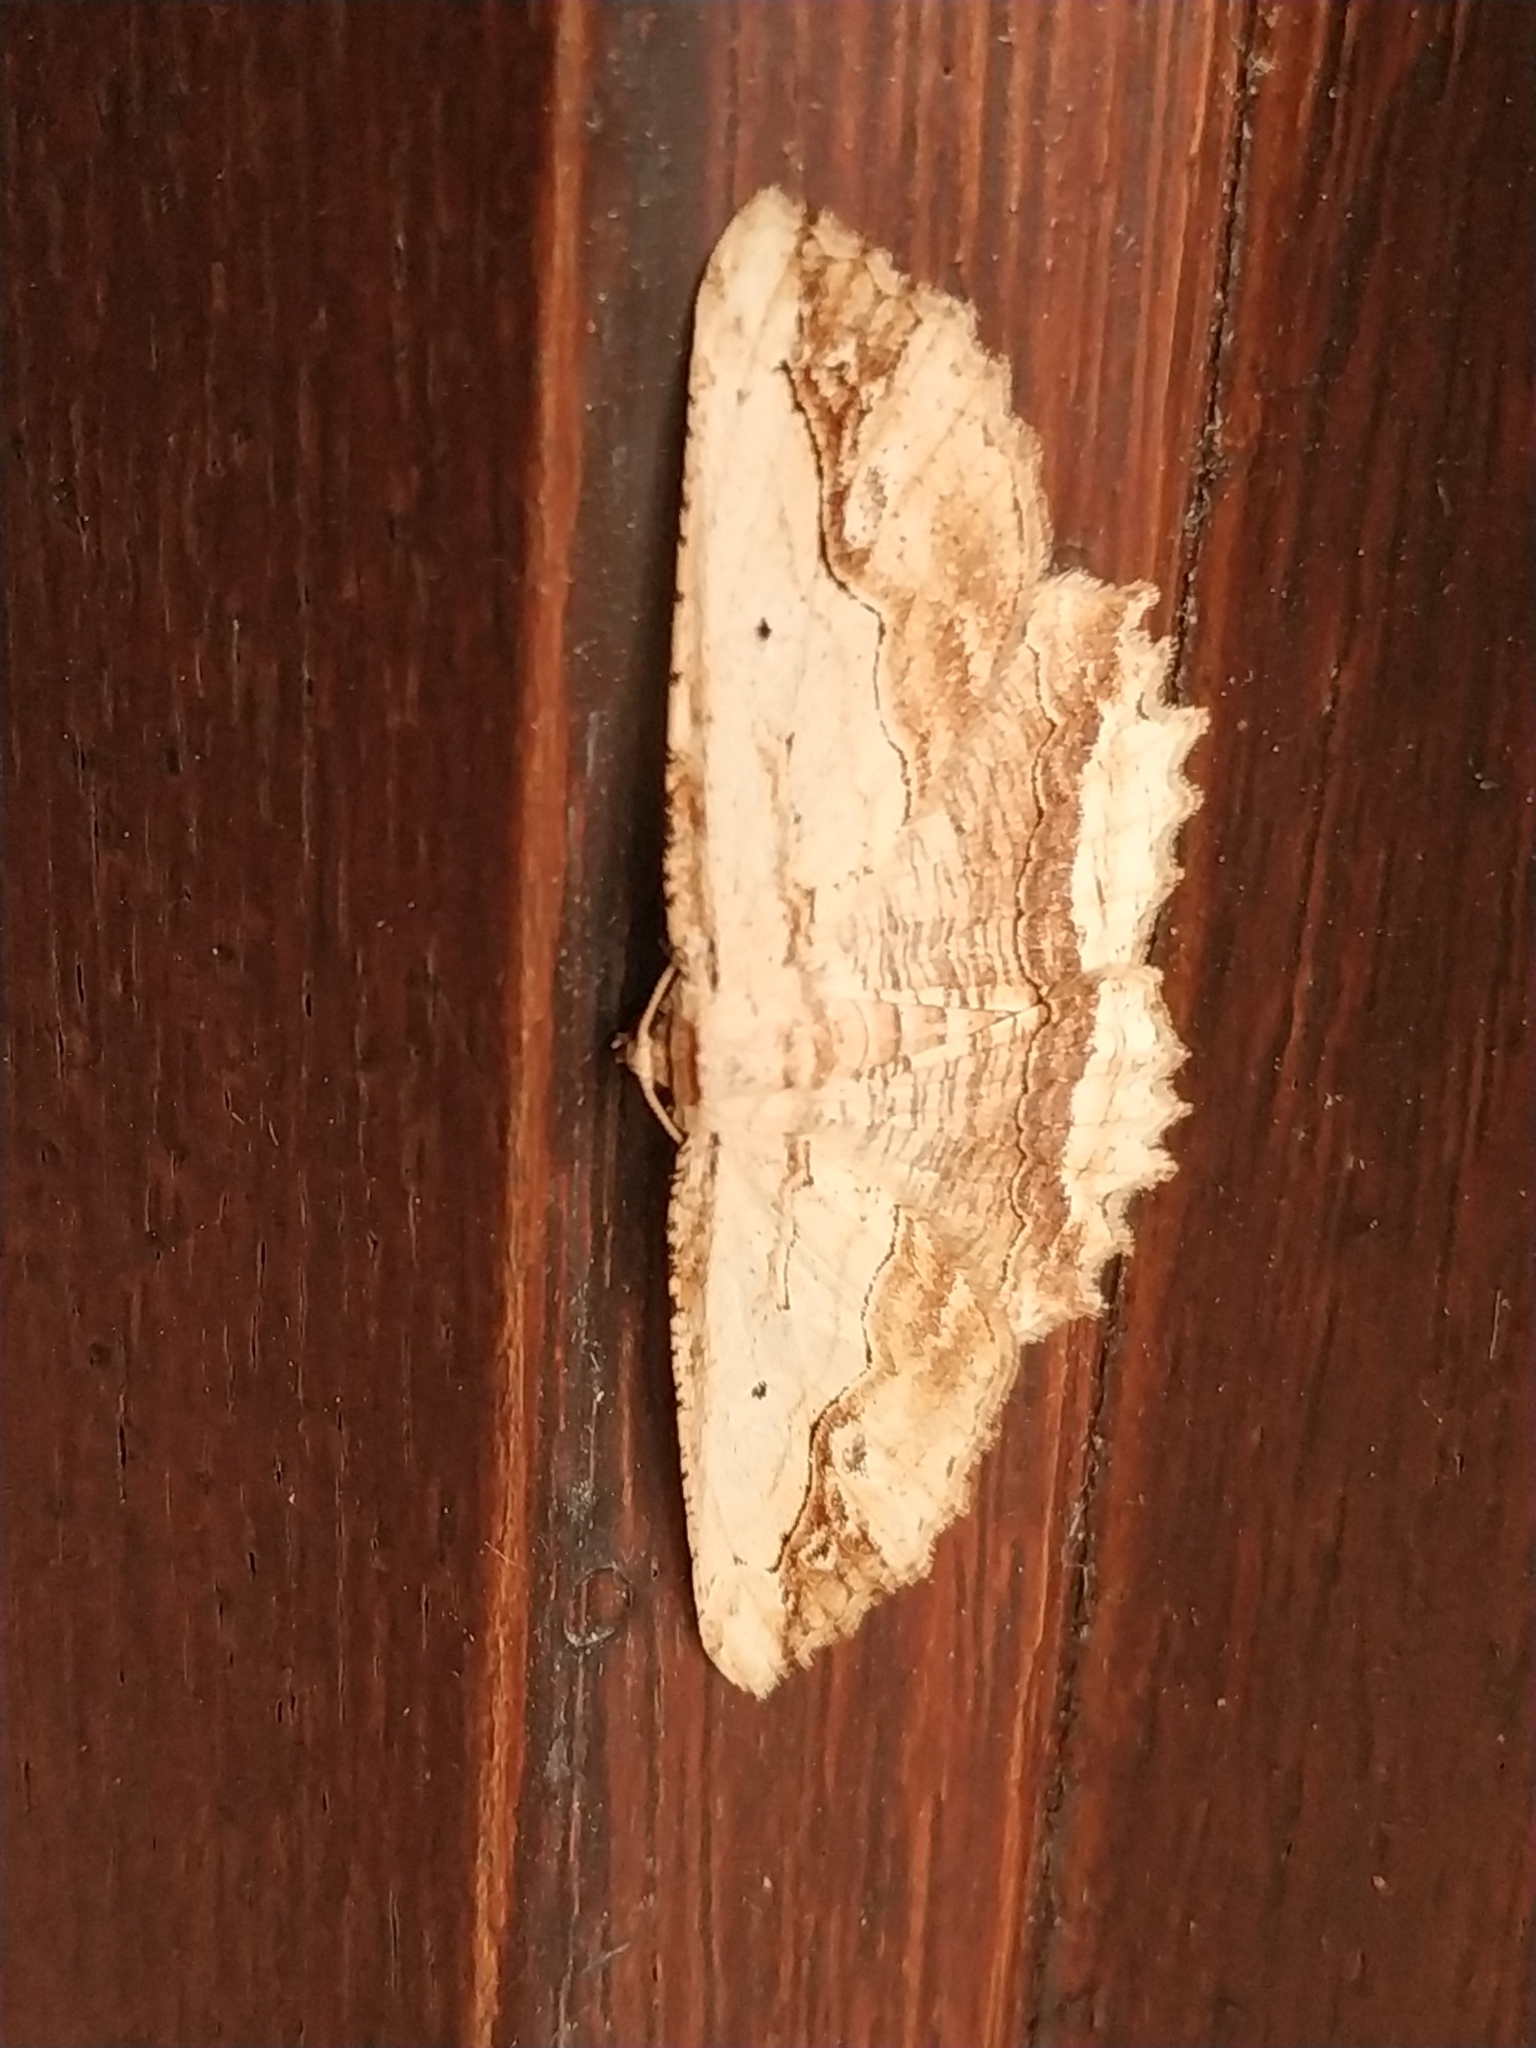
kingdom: Animalia
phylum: Arthropoda
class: Insecta
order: Lepidoptera
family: Geometridae
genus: Menophra
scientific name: Menophra abruptaria
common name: Waved umber
